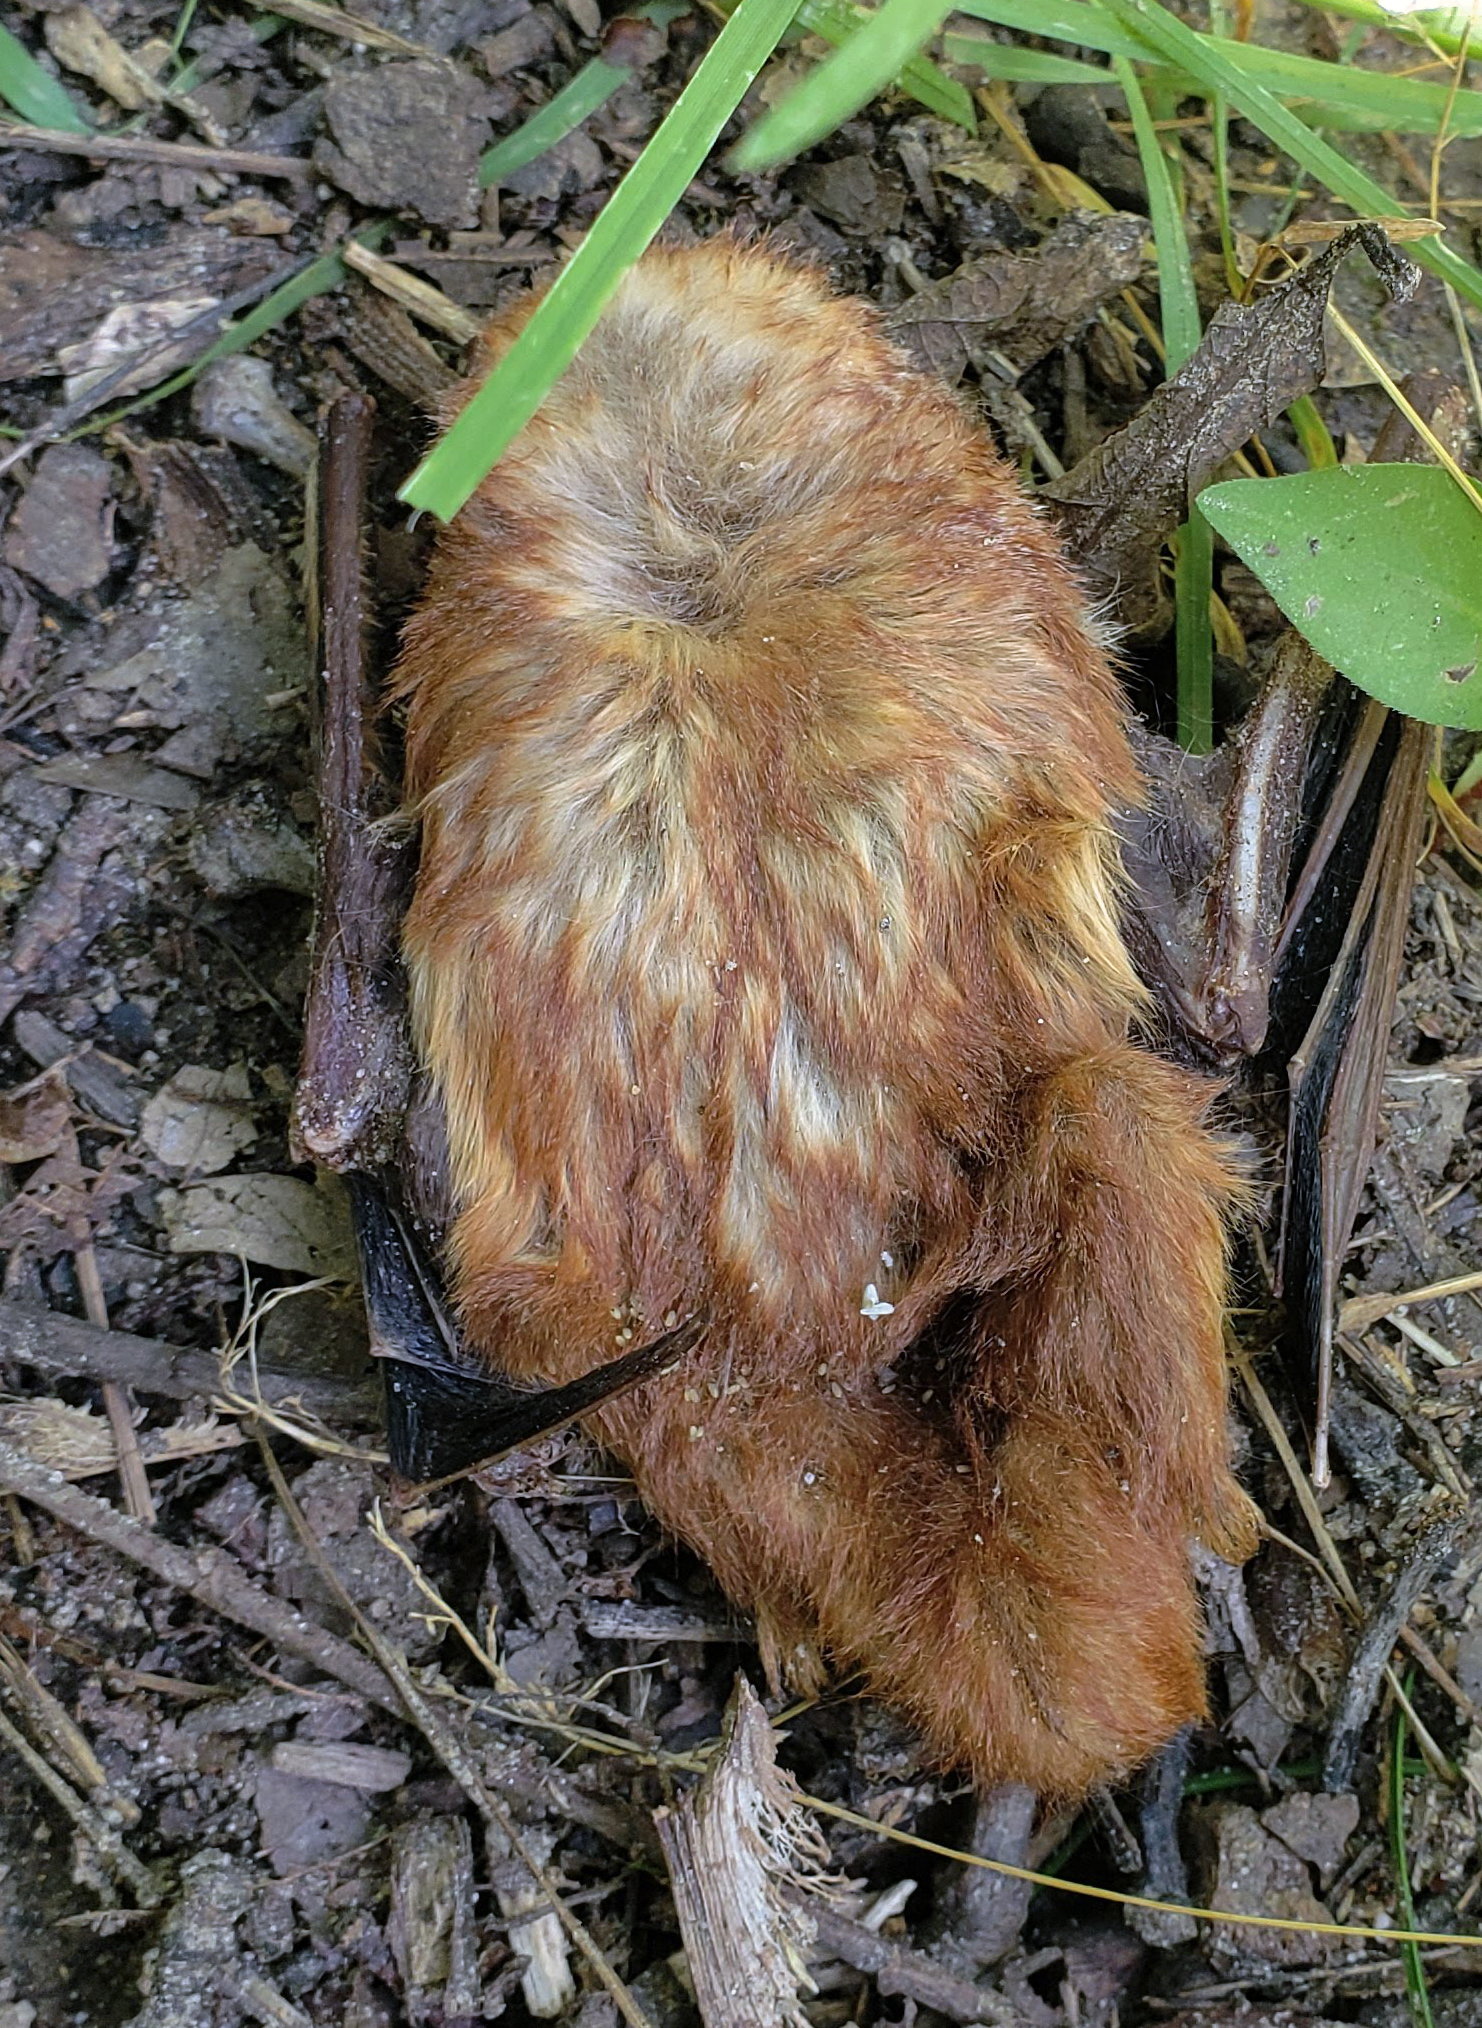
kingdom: Animalia
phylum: Chordata
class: Mammalia
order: Chiroptera
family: Vespertilionidae
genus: Lasiurus
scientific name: Lasiurus borealis
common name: Eastern red bat
